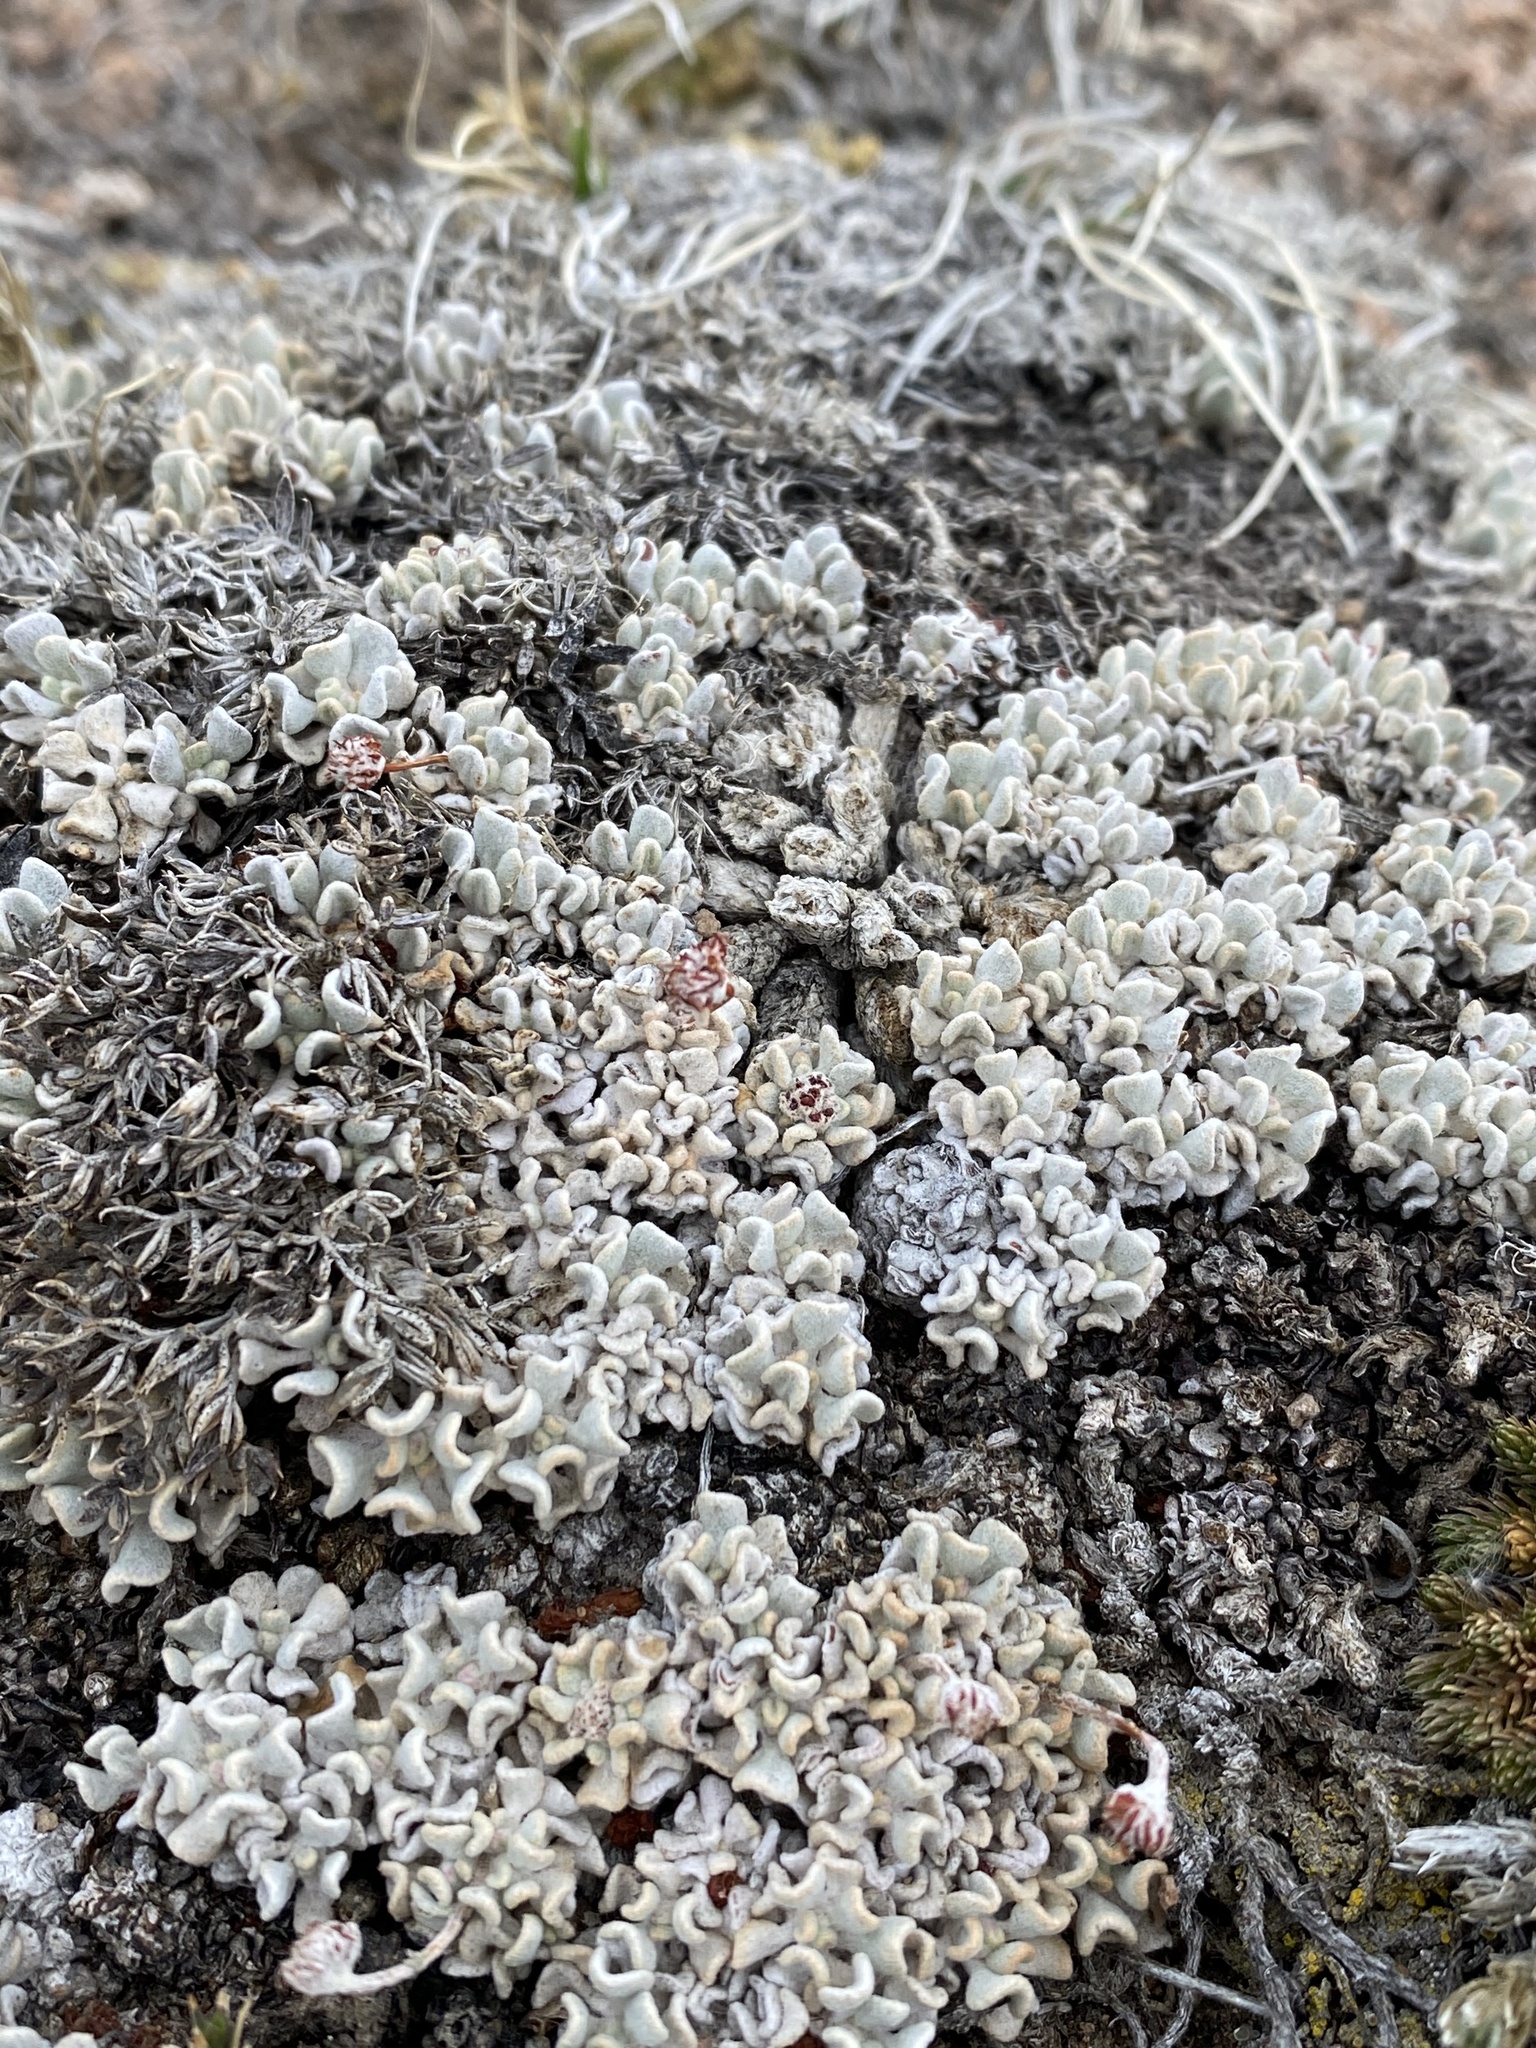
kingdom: Plantae
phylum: Tracheophyta
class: Magnoliopsida
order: Caryophyllales
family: Polygonaceae
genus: Eriogonum
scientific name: Eriogonum ovalifolium
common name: Cushion buckwheat
